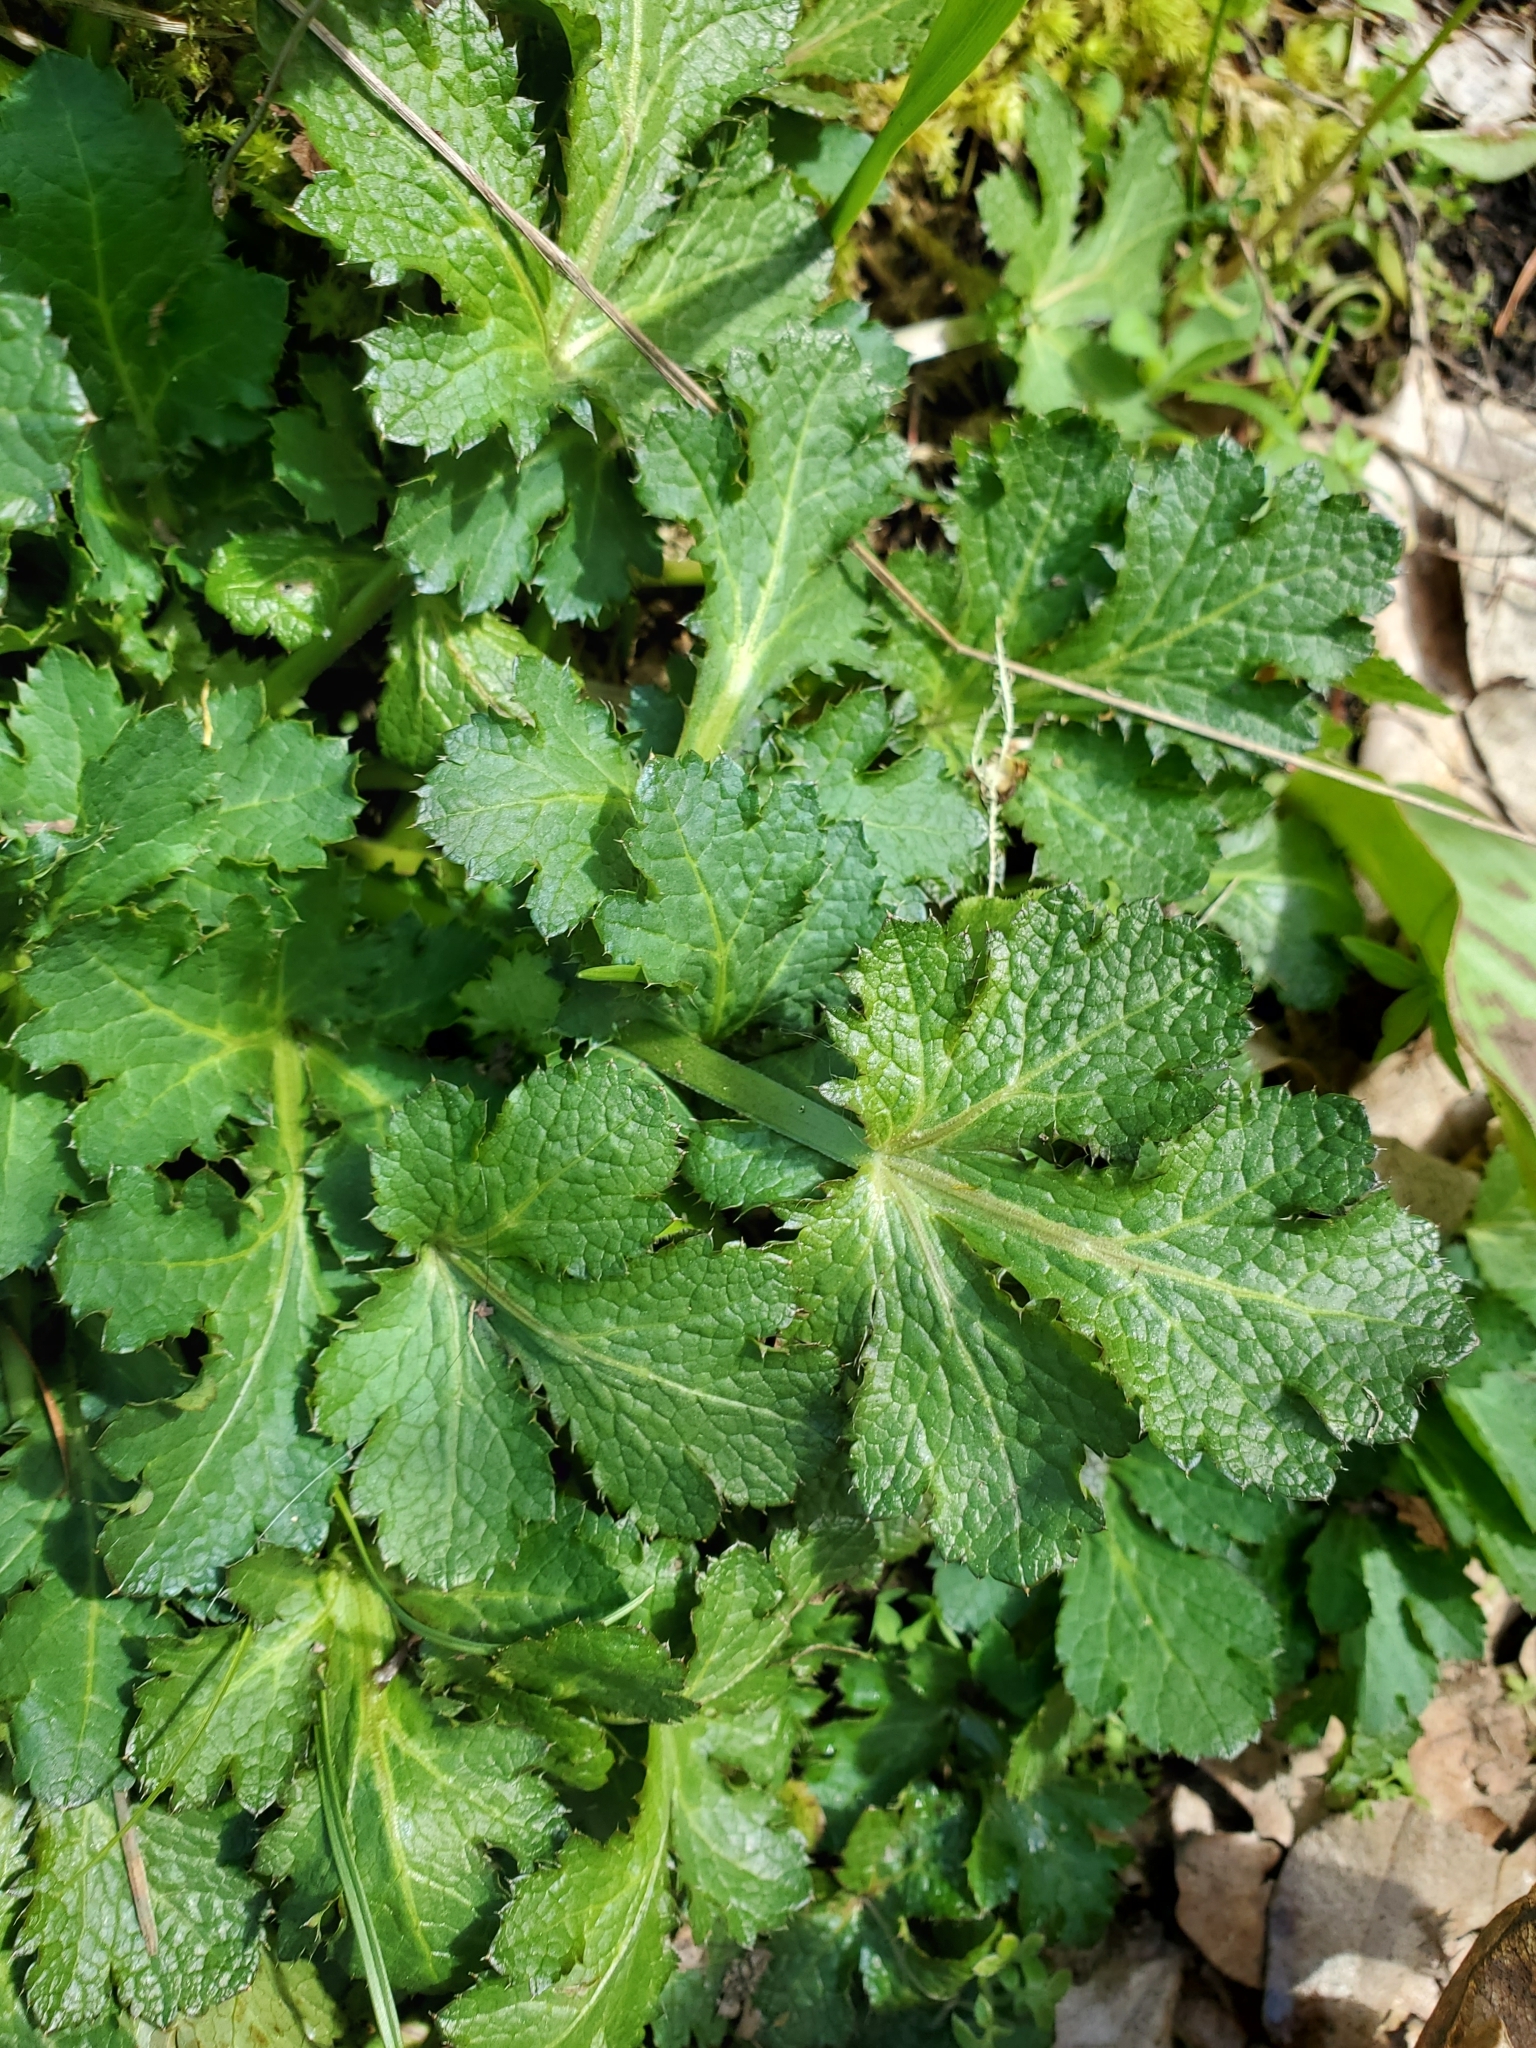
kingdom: Plantae
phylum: Tracheophyta
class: Magnoliopsida
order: Apiales
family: Apiaceae
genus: Sanicula
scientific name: Sanicula crassicaulis
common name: Western snakeroot
